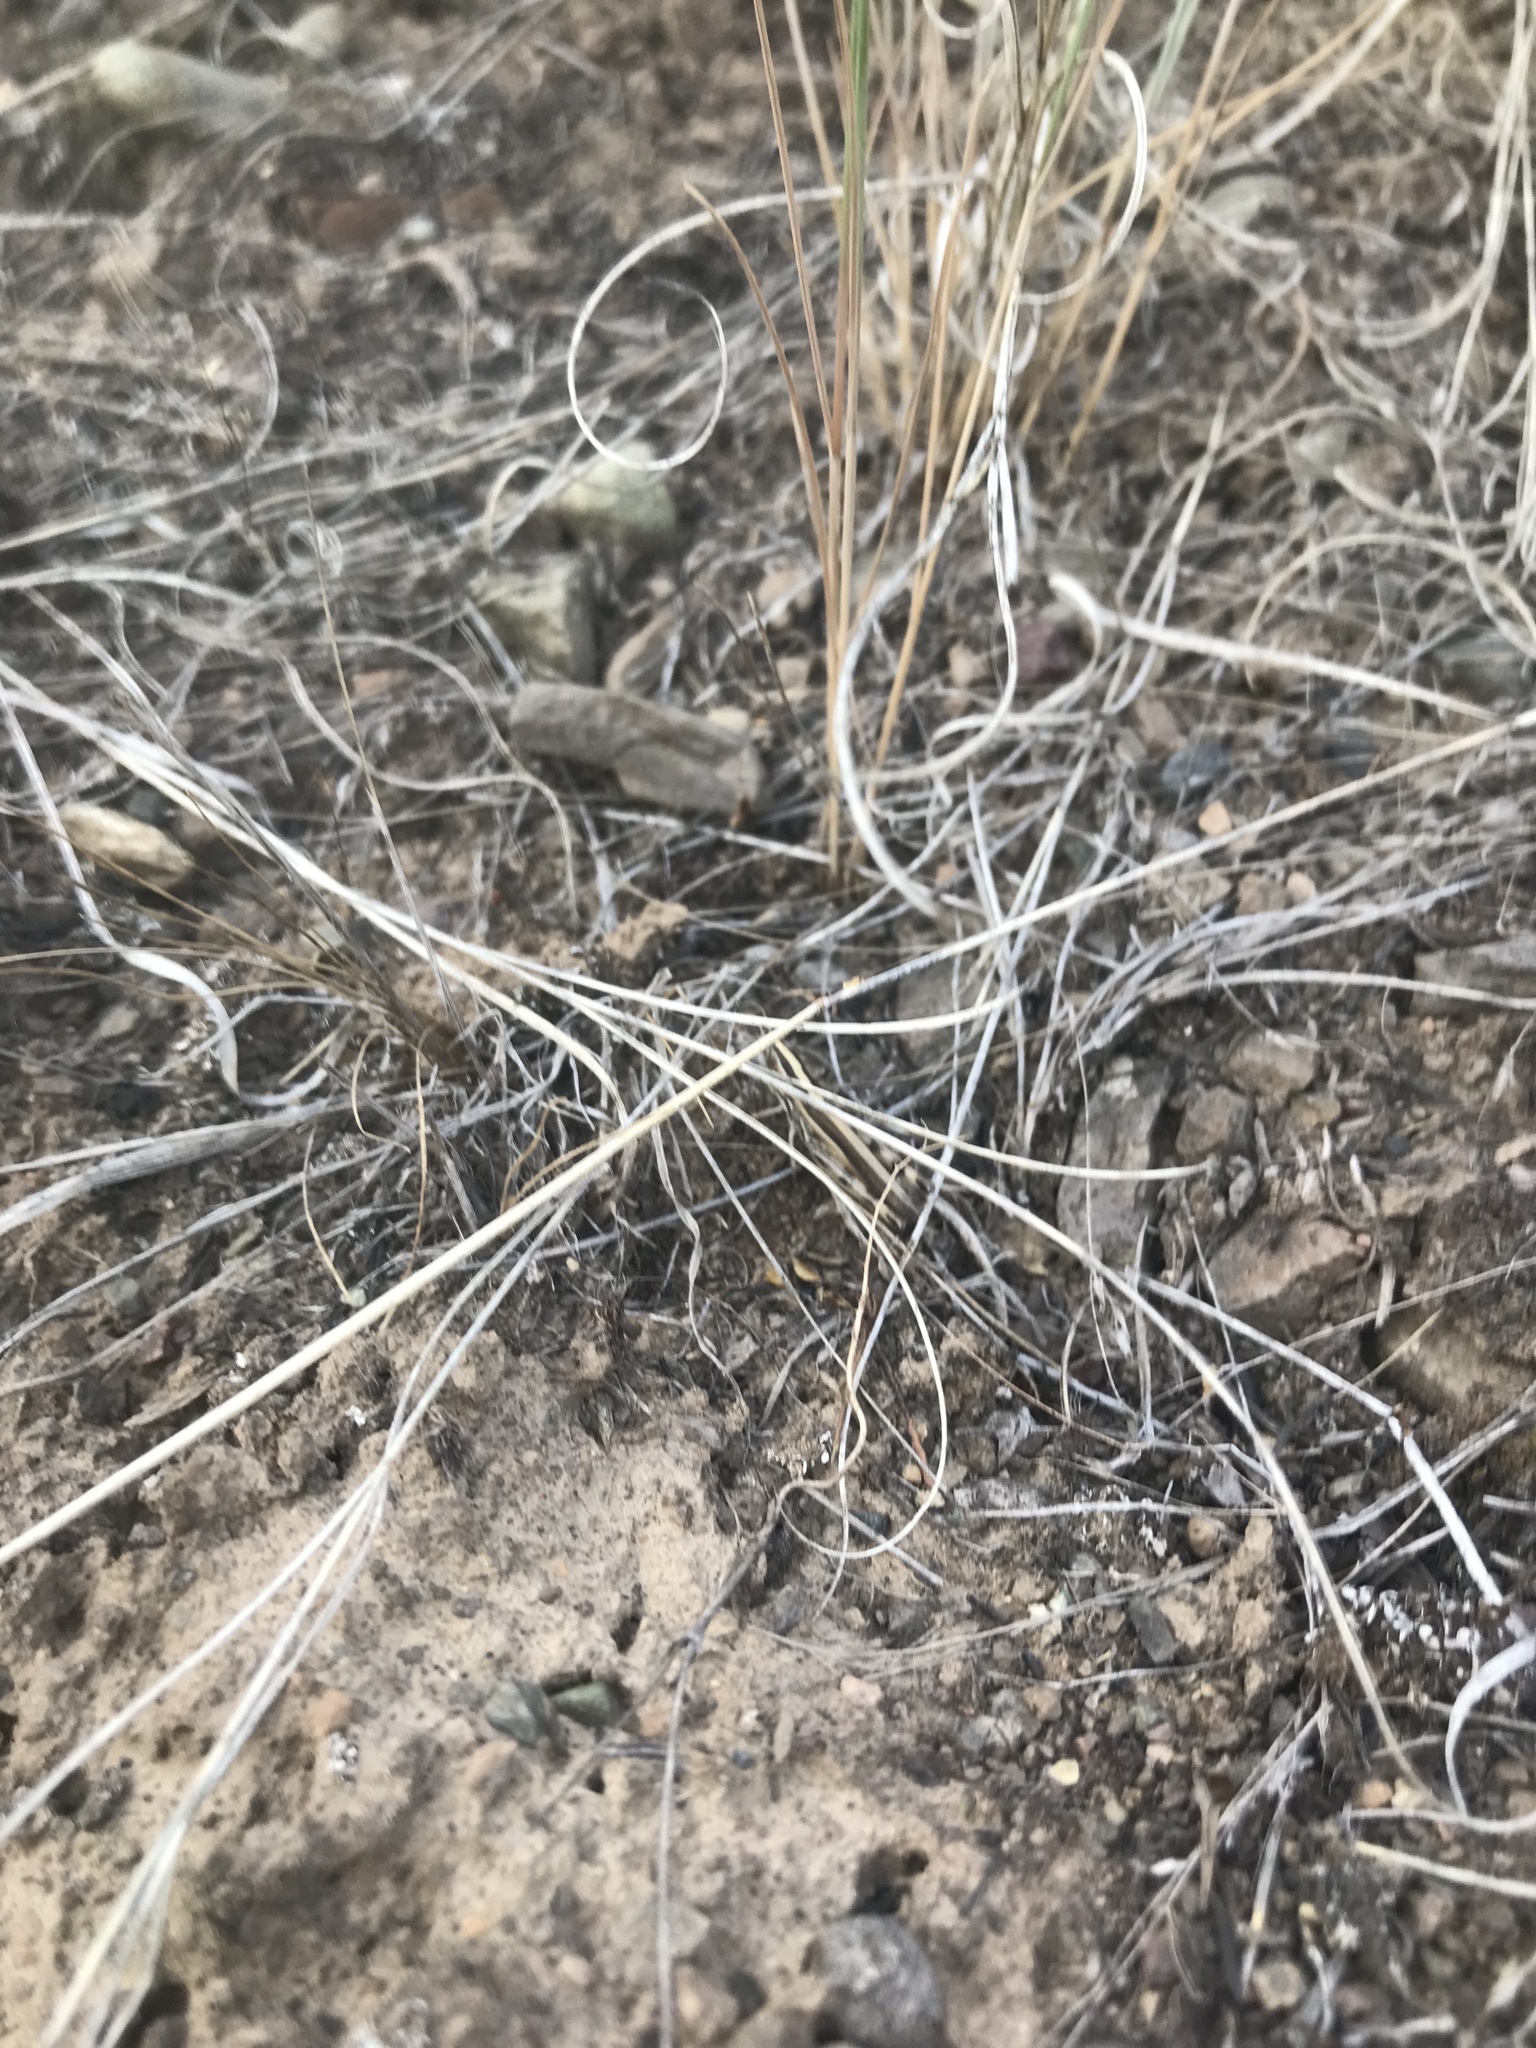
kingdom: Animalia
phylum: Arthropoda
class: Insecta
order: Orthoptera
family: Acrididae
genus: Amphitornus
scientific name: Amphitornus coloradus
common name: Striped grasshopper
